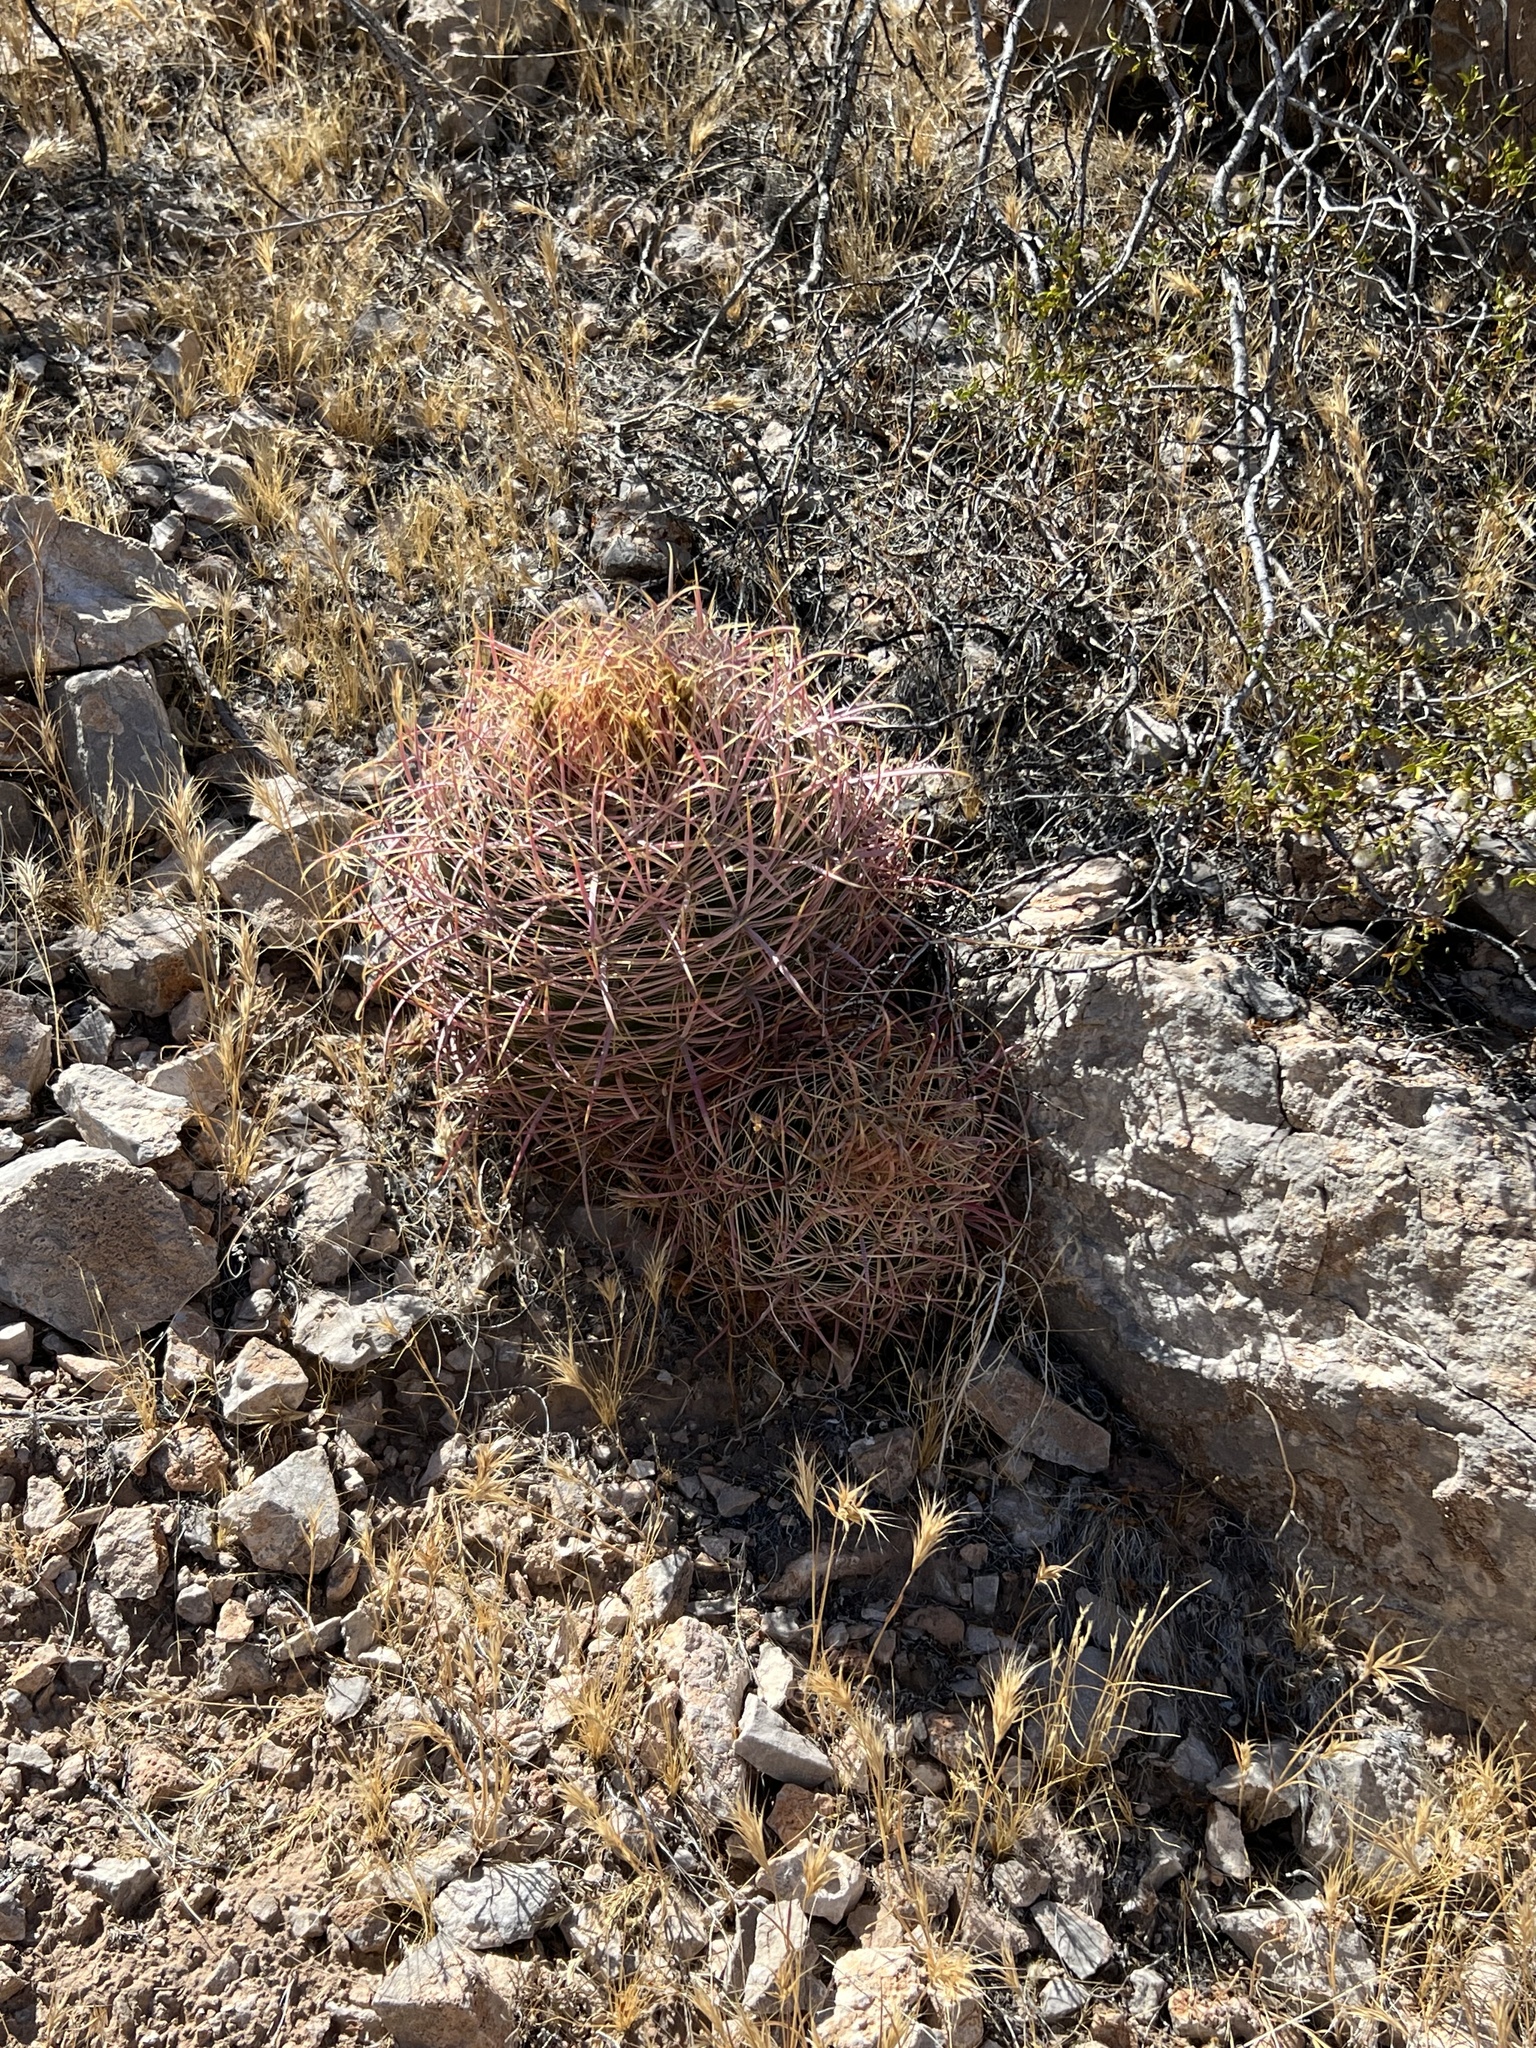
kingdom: Plantae
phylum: Tracheophyta
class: Magnoliopsida
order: Caryophyllales
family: Cactaceae
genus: Ferocactus
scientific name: Ferocactus cylindraceus
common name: California barrel cactus
